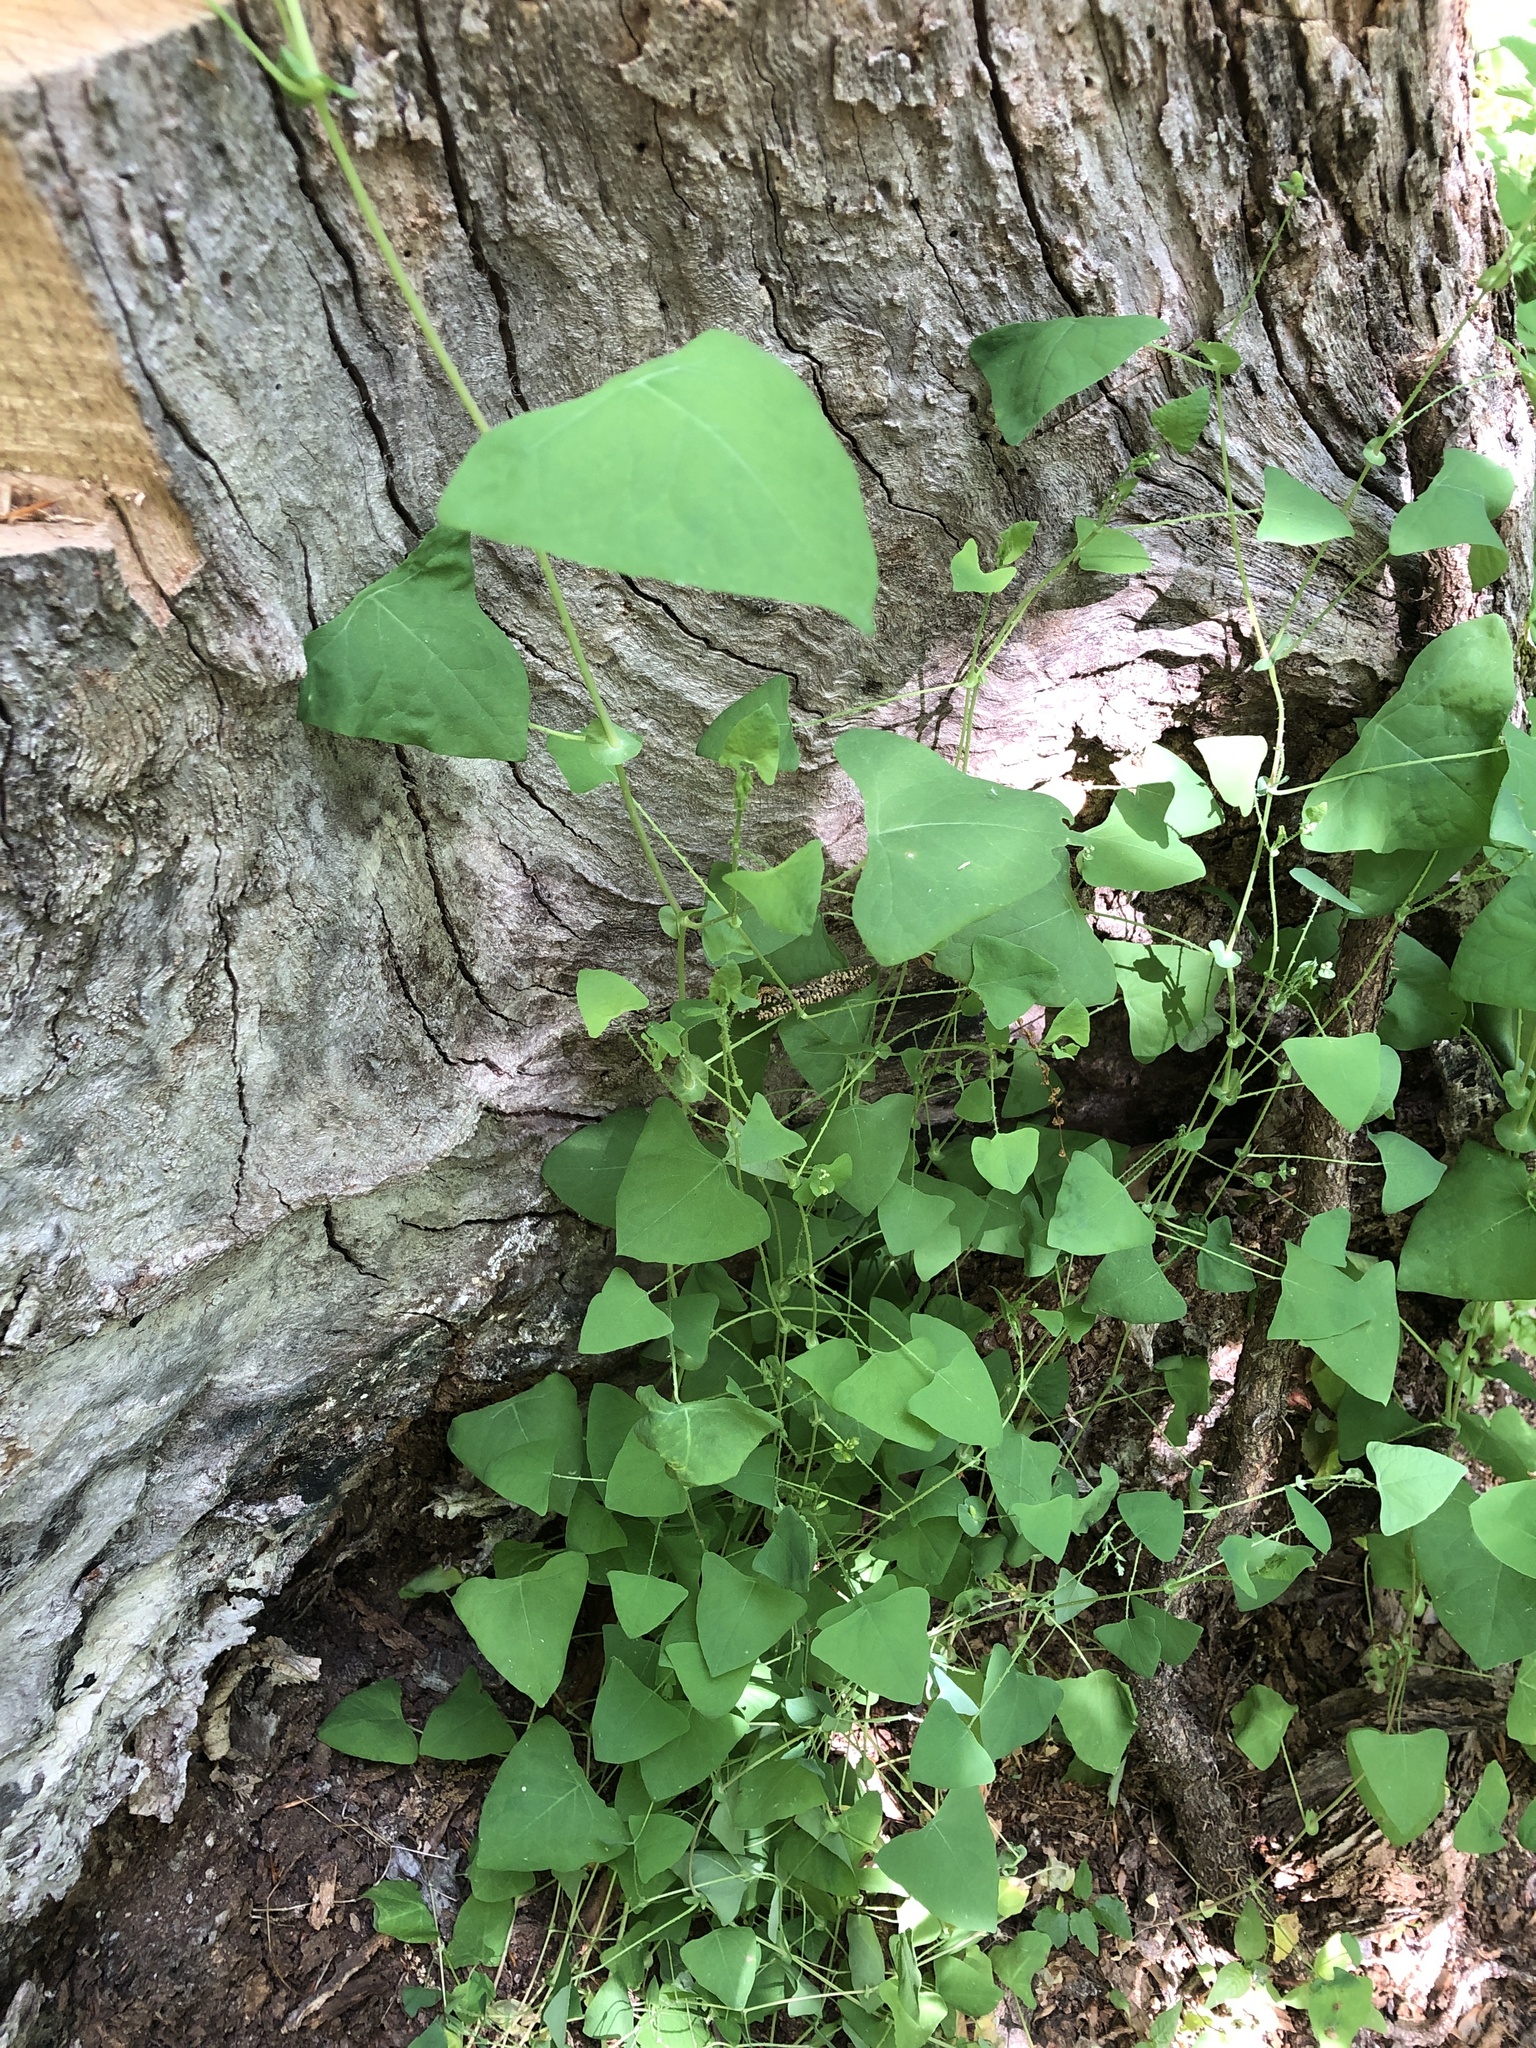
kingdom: Plantae
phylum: Tracheophyta
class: Magnoliopsida
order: Caryophyllales
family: Polygonaceae
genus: Persicaria
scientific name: Persicaria perfoliata
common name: Asiatic tearthumb
